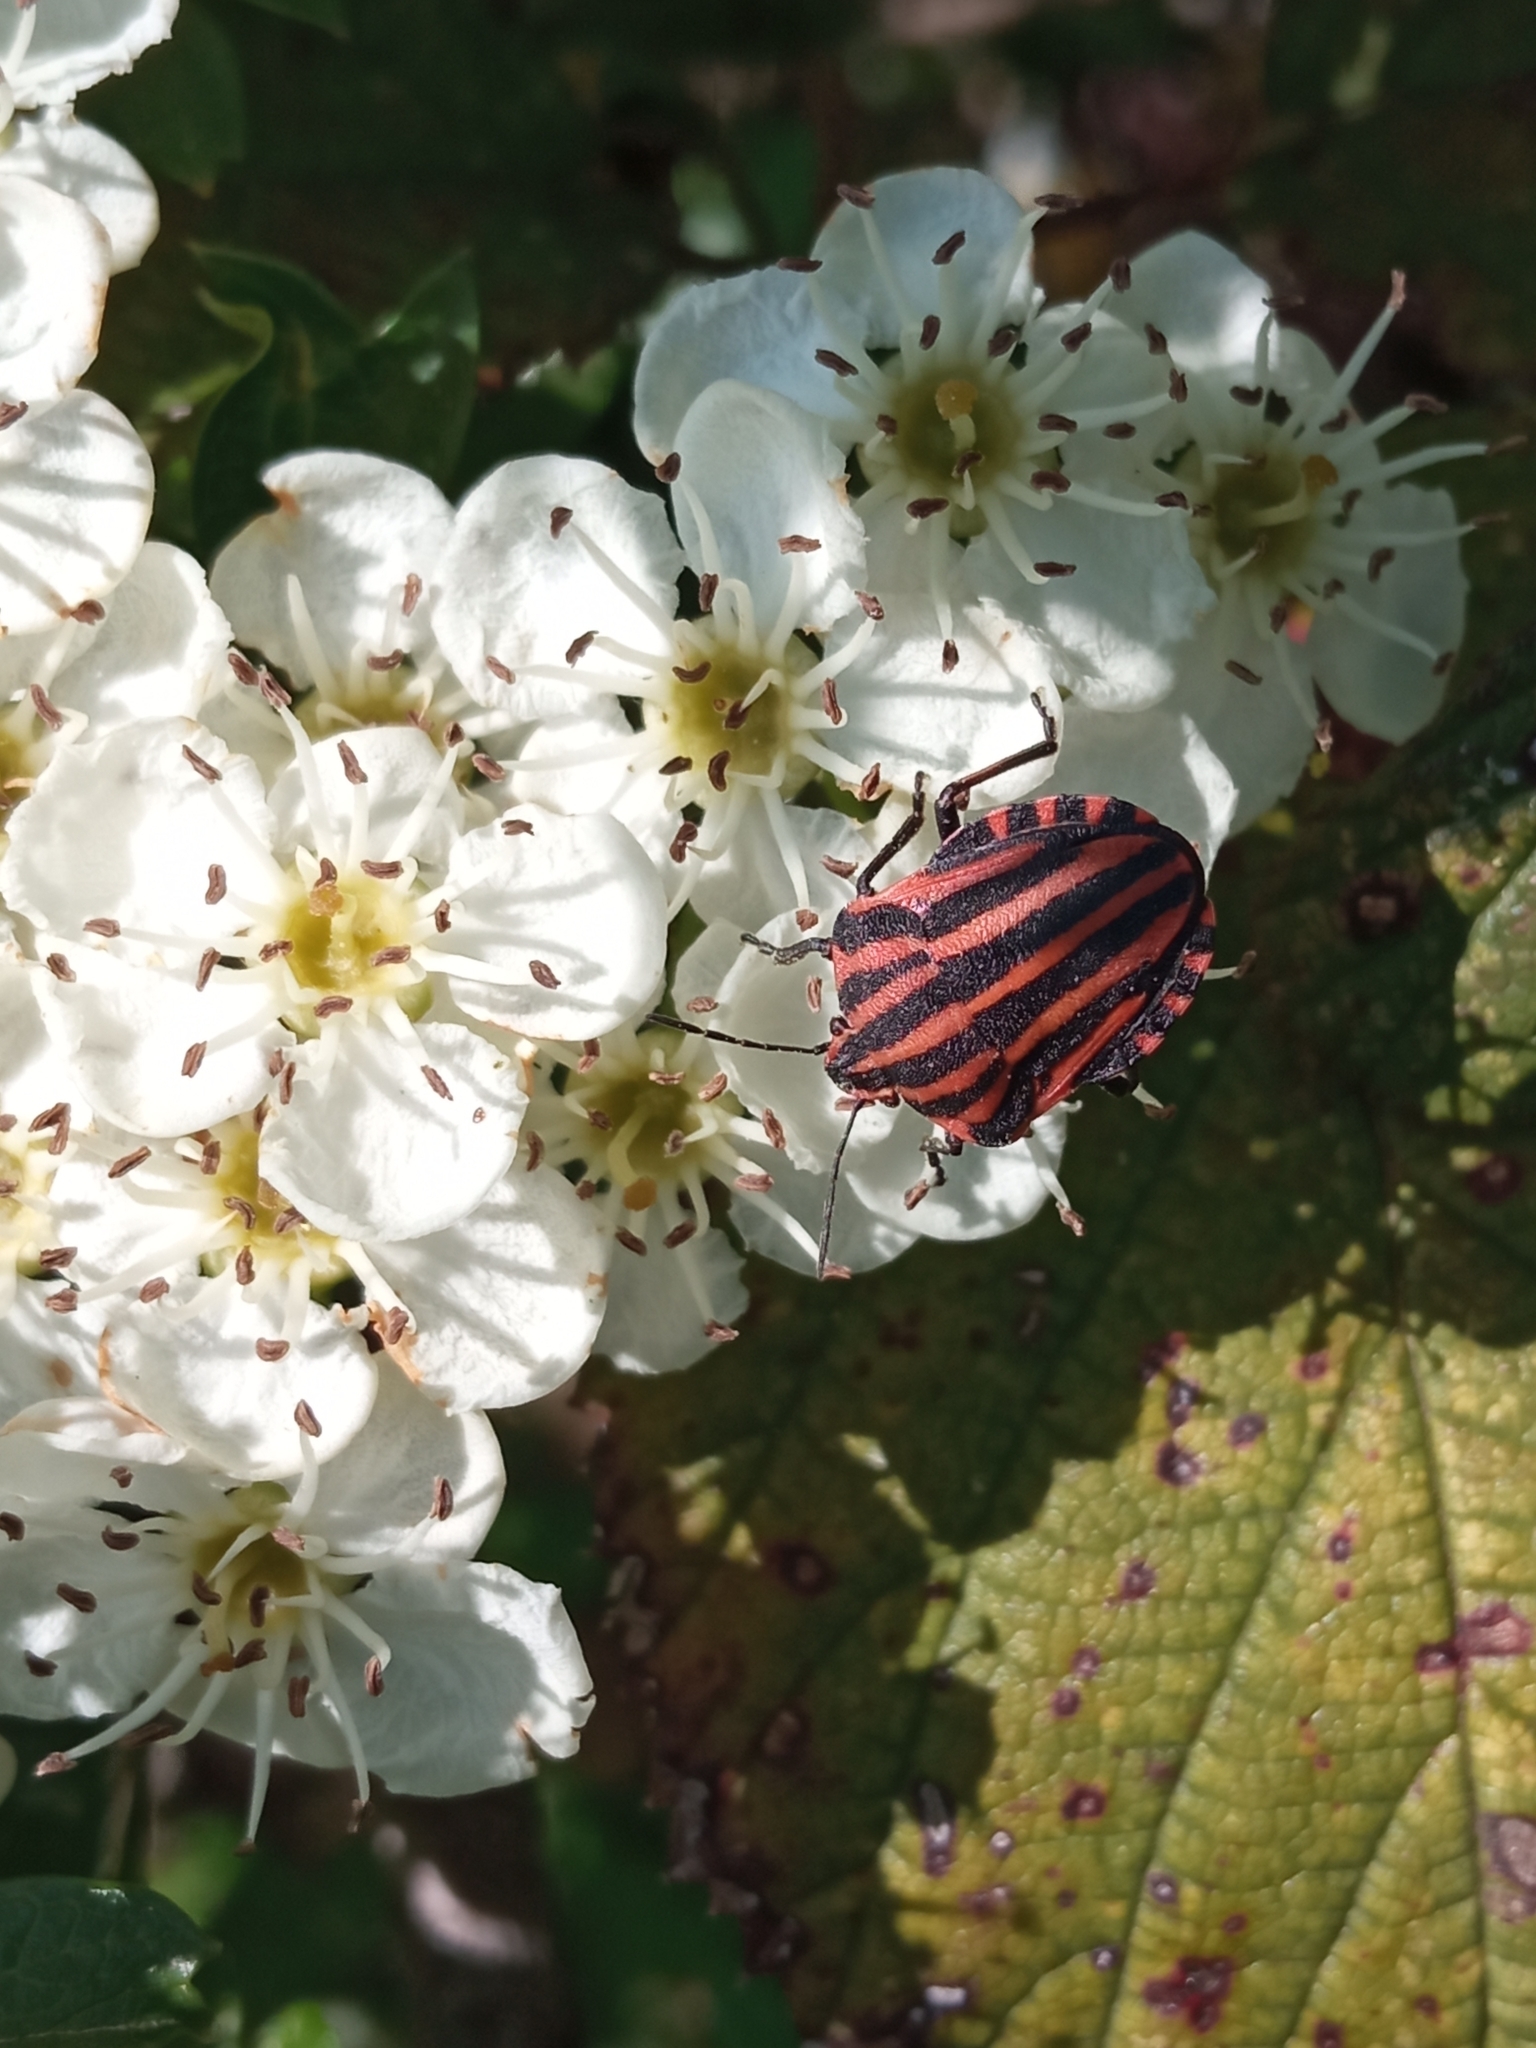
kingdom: Animalia
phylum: Arthropoda
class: Insecta
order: Hemiptera
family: Pentatomidae
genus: Graphosoma
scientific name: Graphosoma italicum
